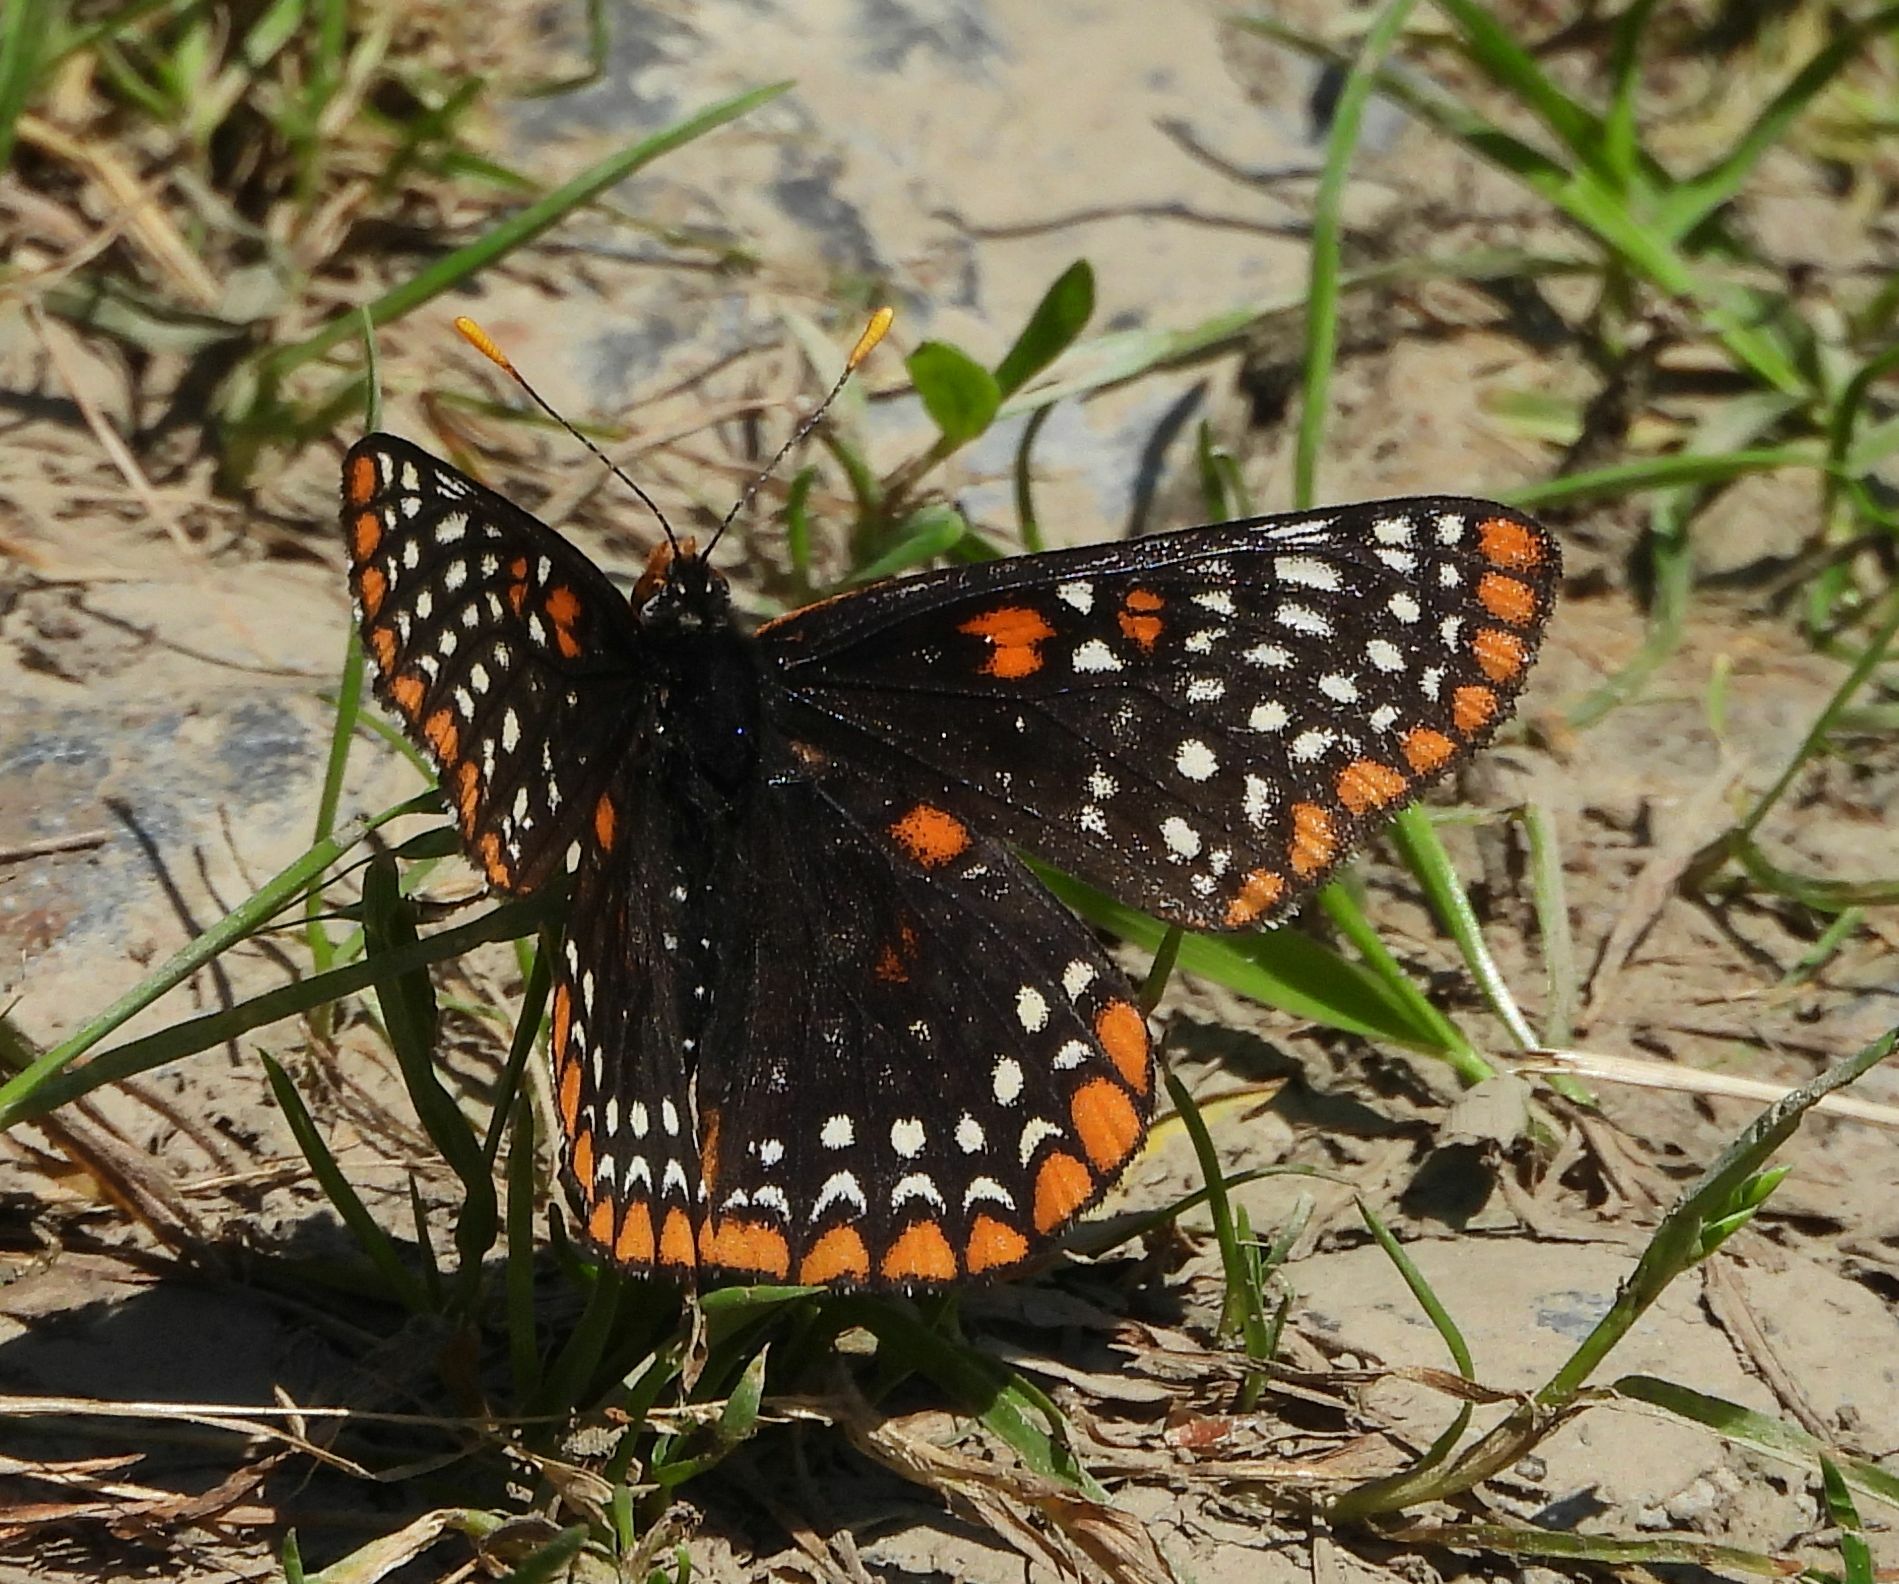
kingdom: Animalia
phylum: Arthropoda
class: Insecta
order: Lepidoptera
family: Nymphalidae
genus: Euphydryas
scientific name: Euphydryas phaeton
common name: Baltimore checkerspot
